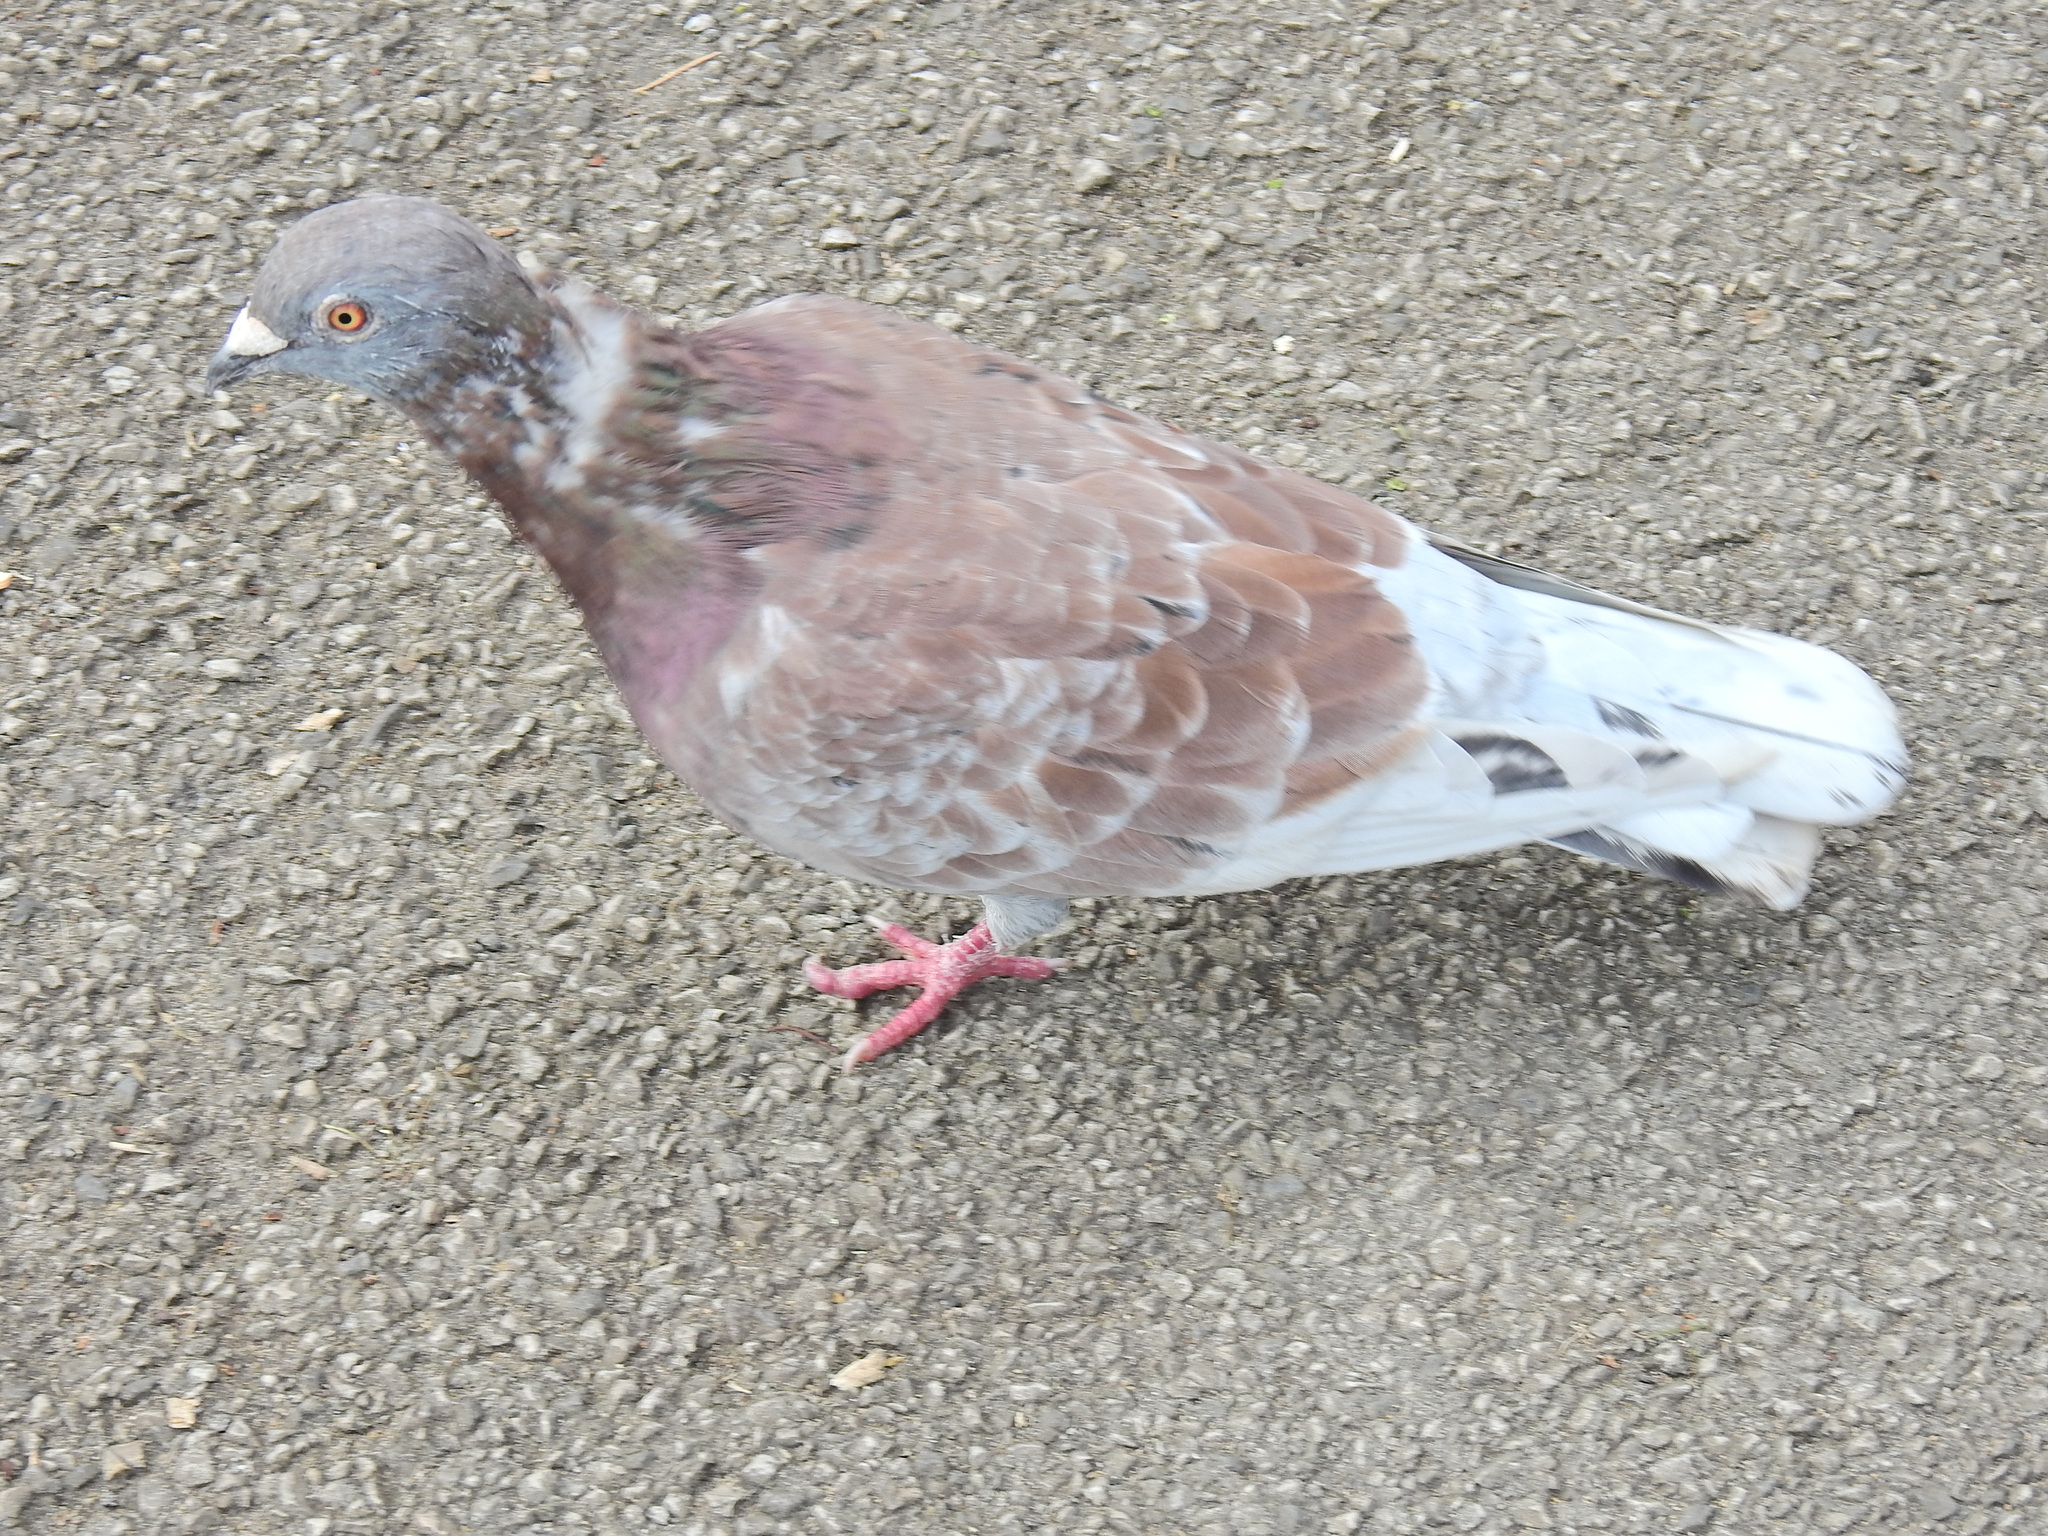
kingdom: Animalia
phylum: Chordata
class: Aves
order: Columbiformes
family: Columbidae
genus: Columba
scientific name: Columba livia
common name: Rock pigeon
